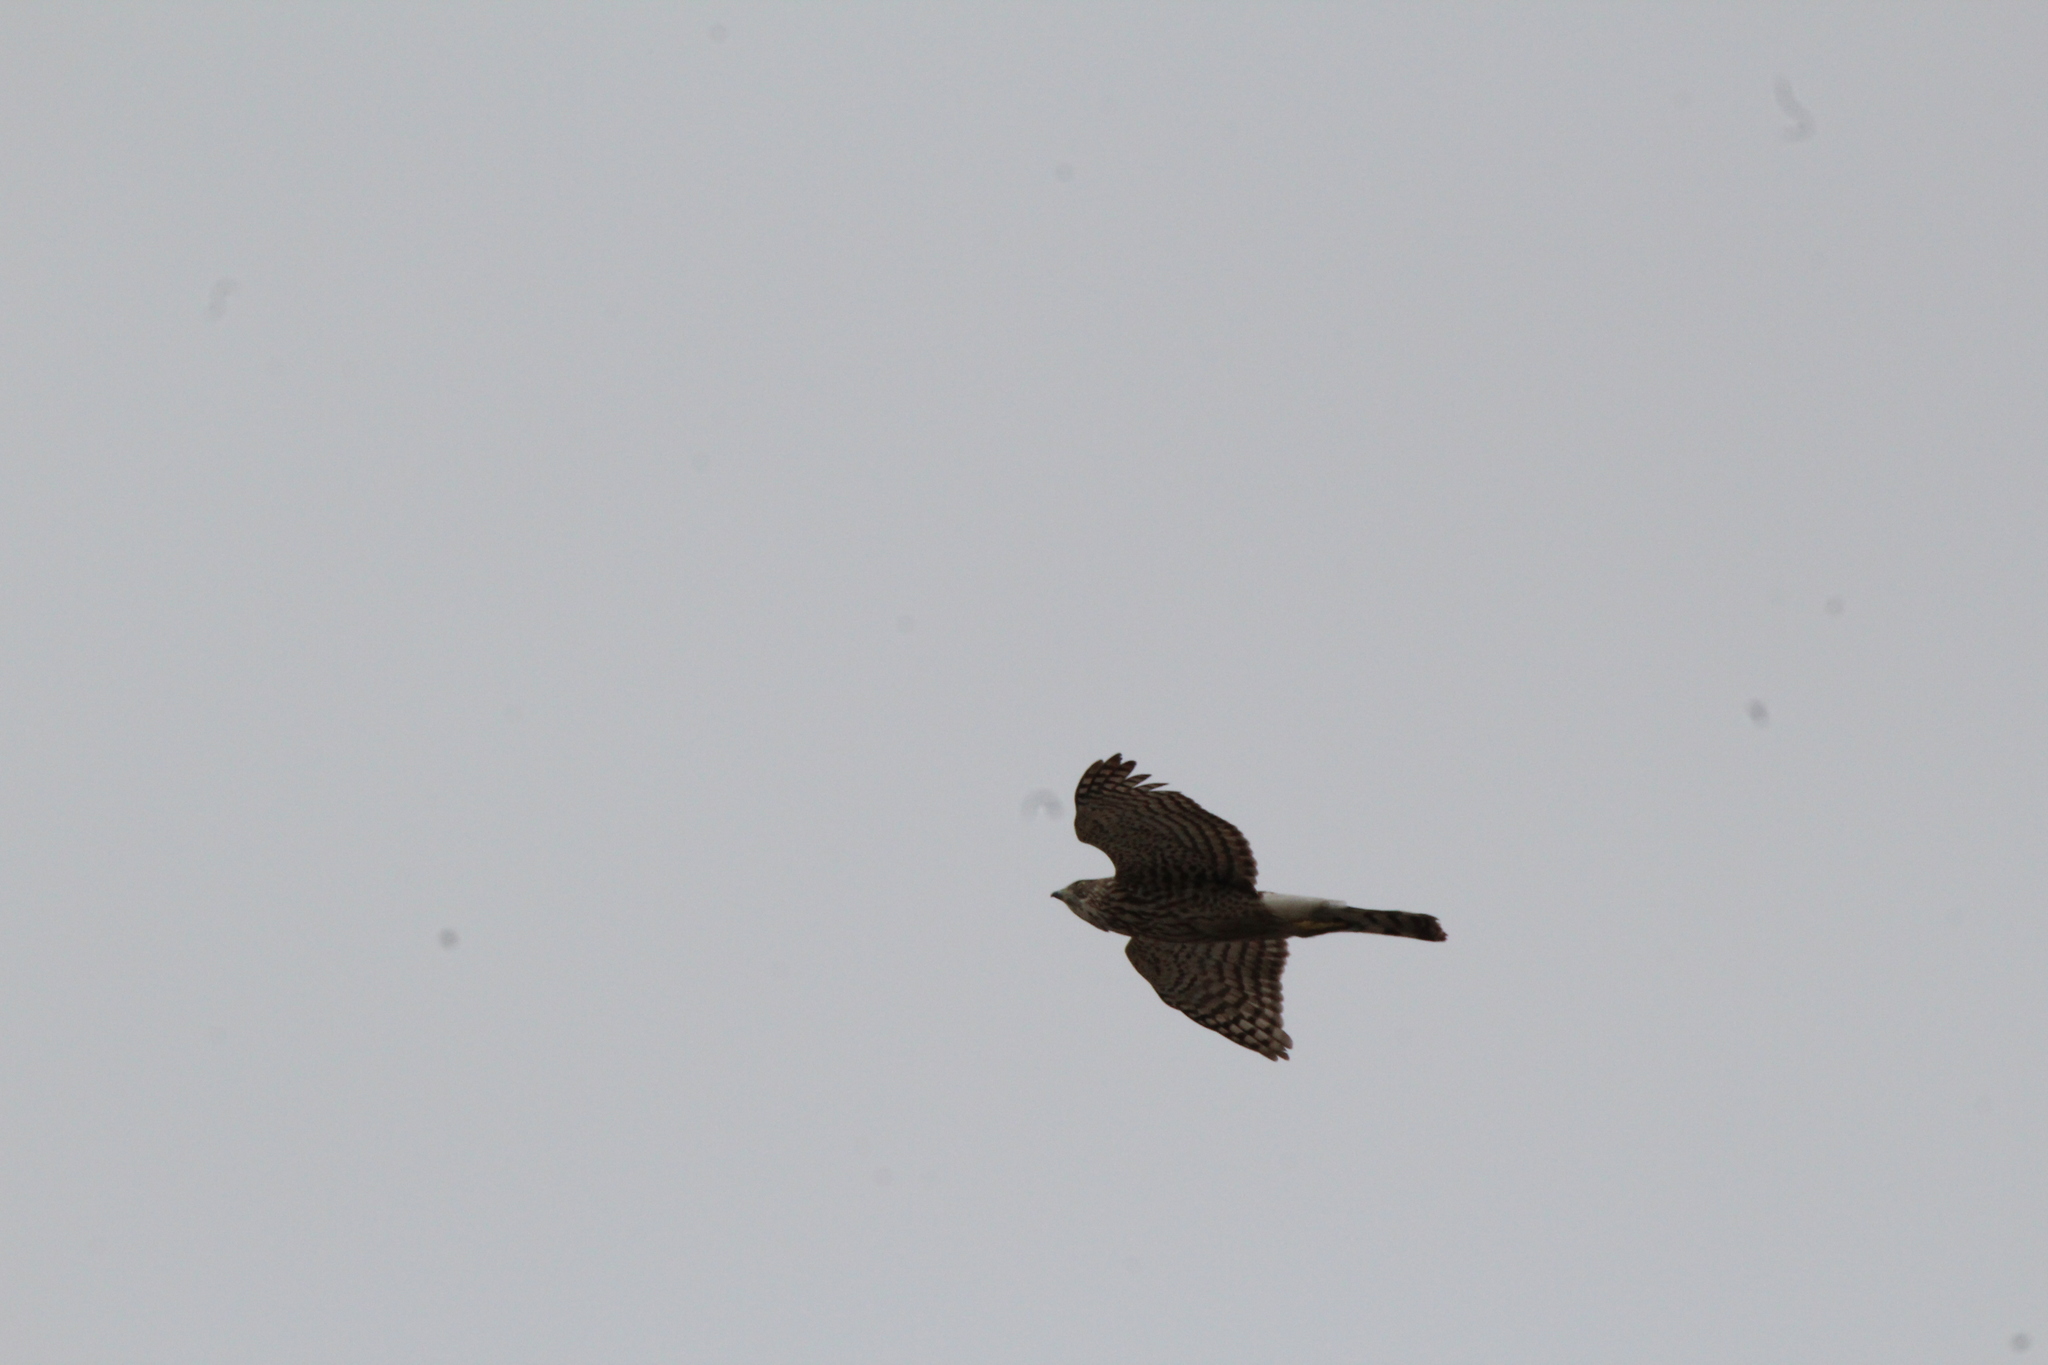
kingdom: Animalia
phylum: Chordata
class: Aves
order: Accipitriformes
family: Accipitridae
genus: Accipiter
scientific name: Accipiter cooperii
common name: Cooper's hawk
